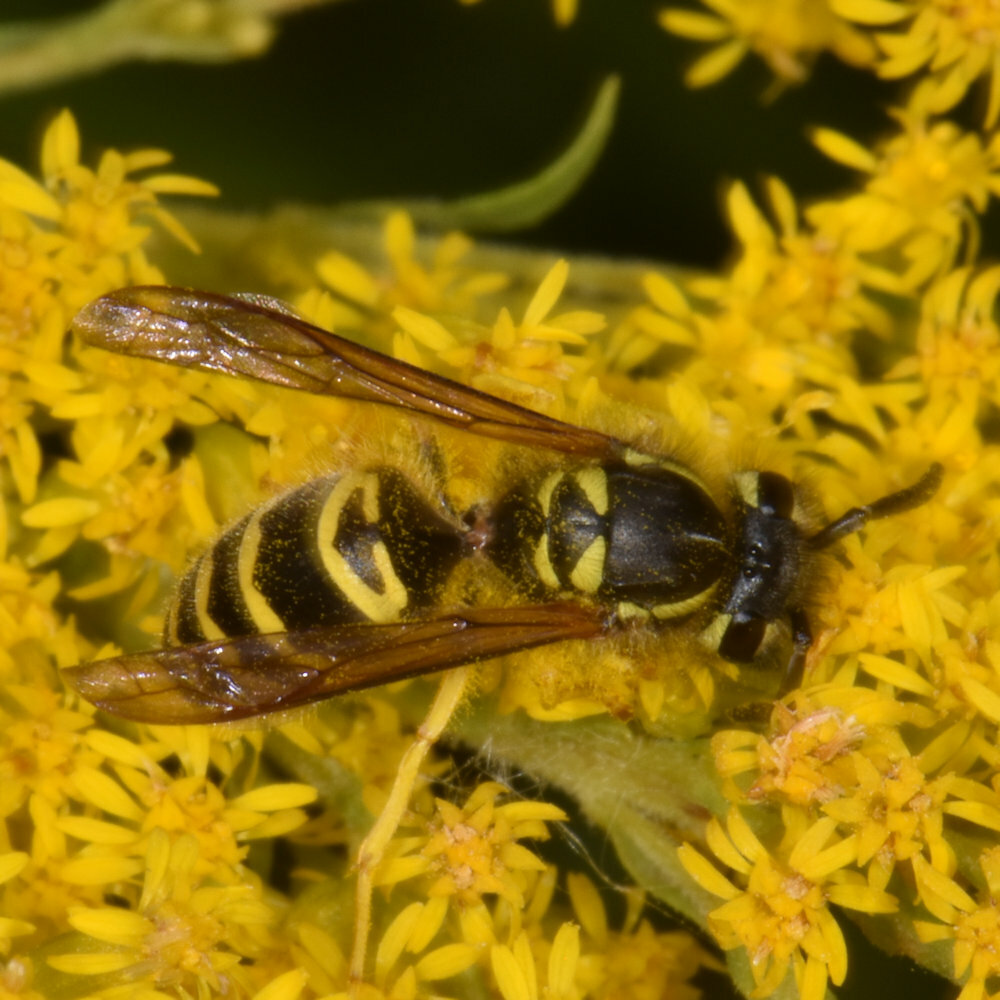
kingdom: Animalia
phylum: Arthropoda
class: Insecta
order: Hymenoptera
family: Vespidae
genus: Vespula
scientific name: Vespula maculifrons
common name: Eastern yellowjacket
